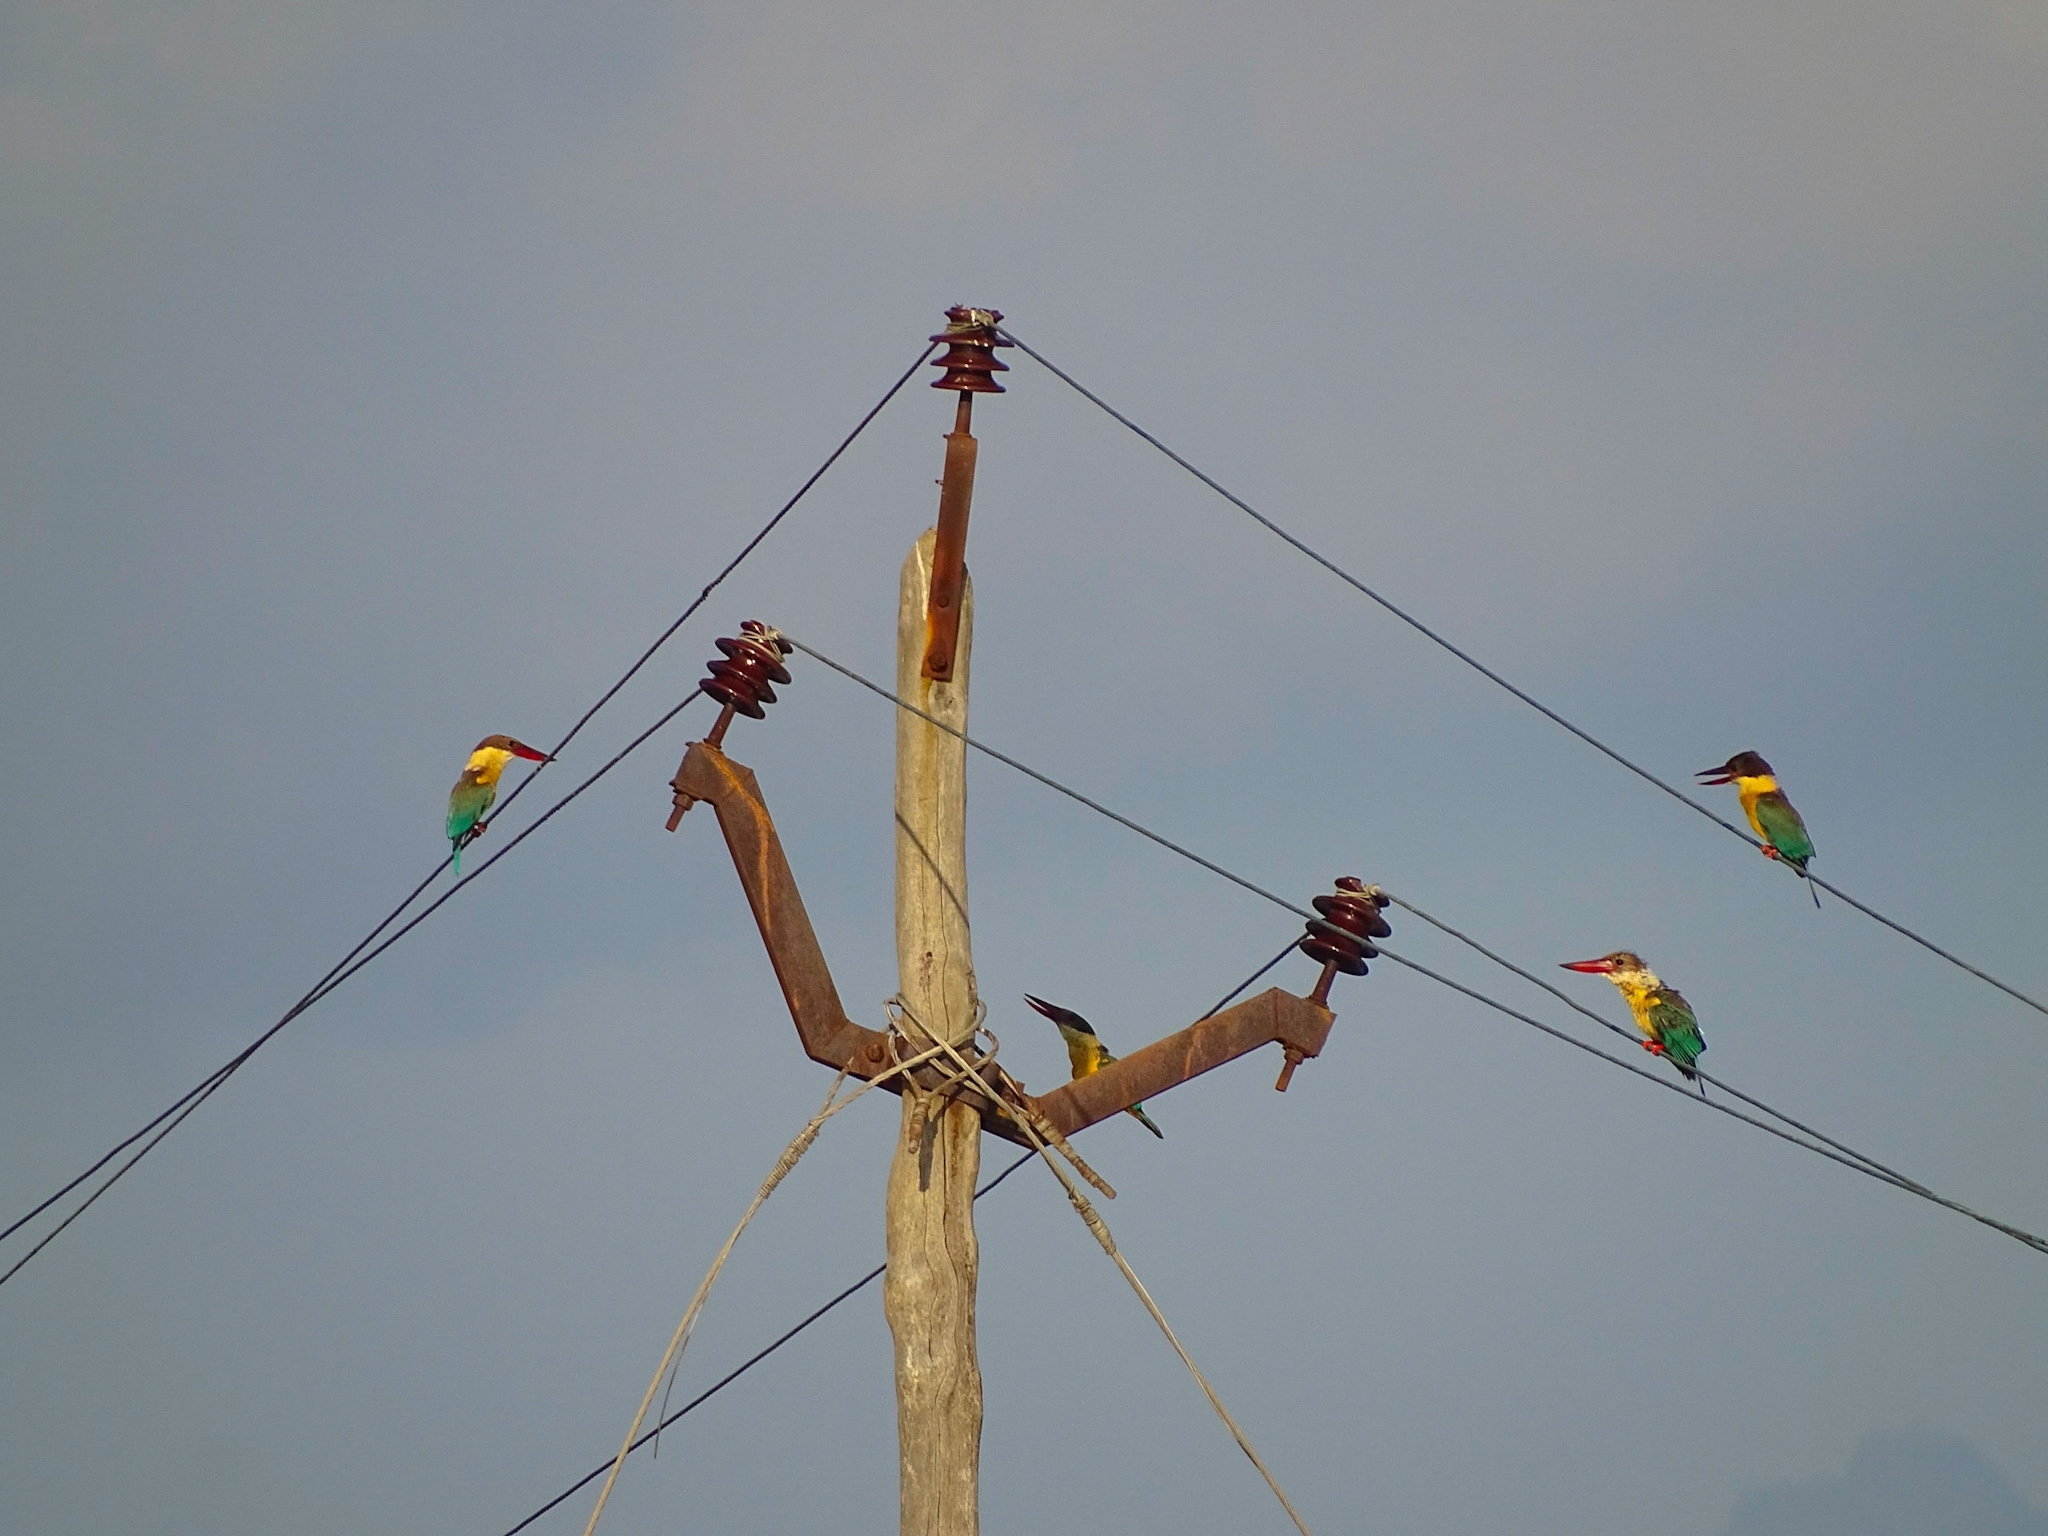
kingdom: Animalia
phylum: Chordata
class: Aves
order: Coraciiformes
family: Alcedinidae
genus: Pelargopsis
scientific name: Pelargopsis capensis
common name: Stork-billed kingfisher
